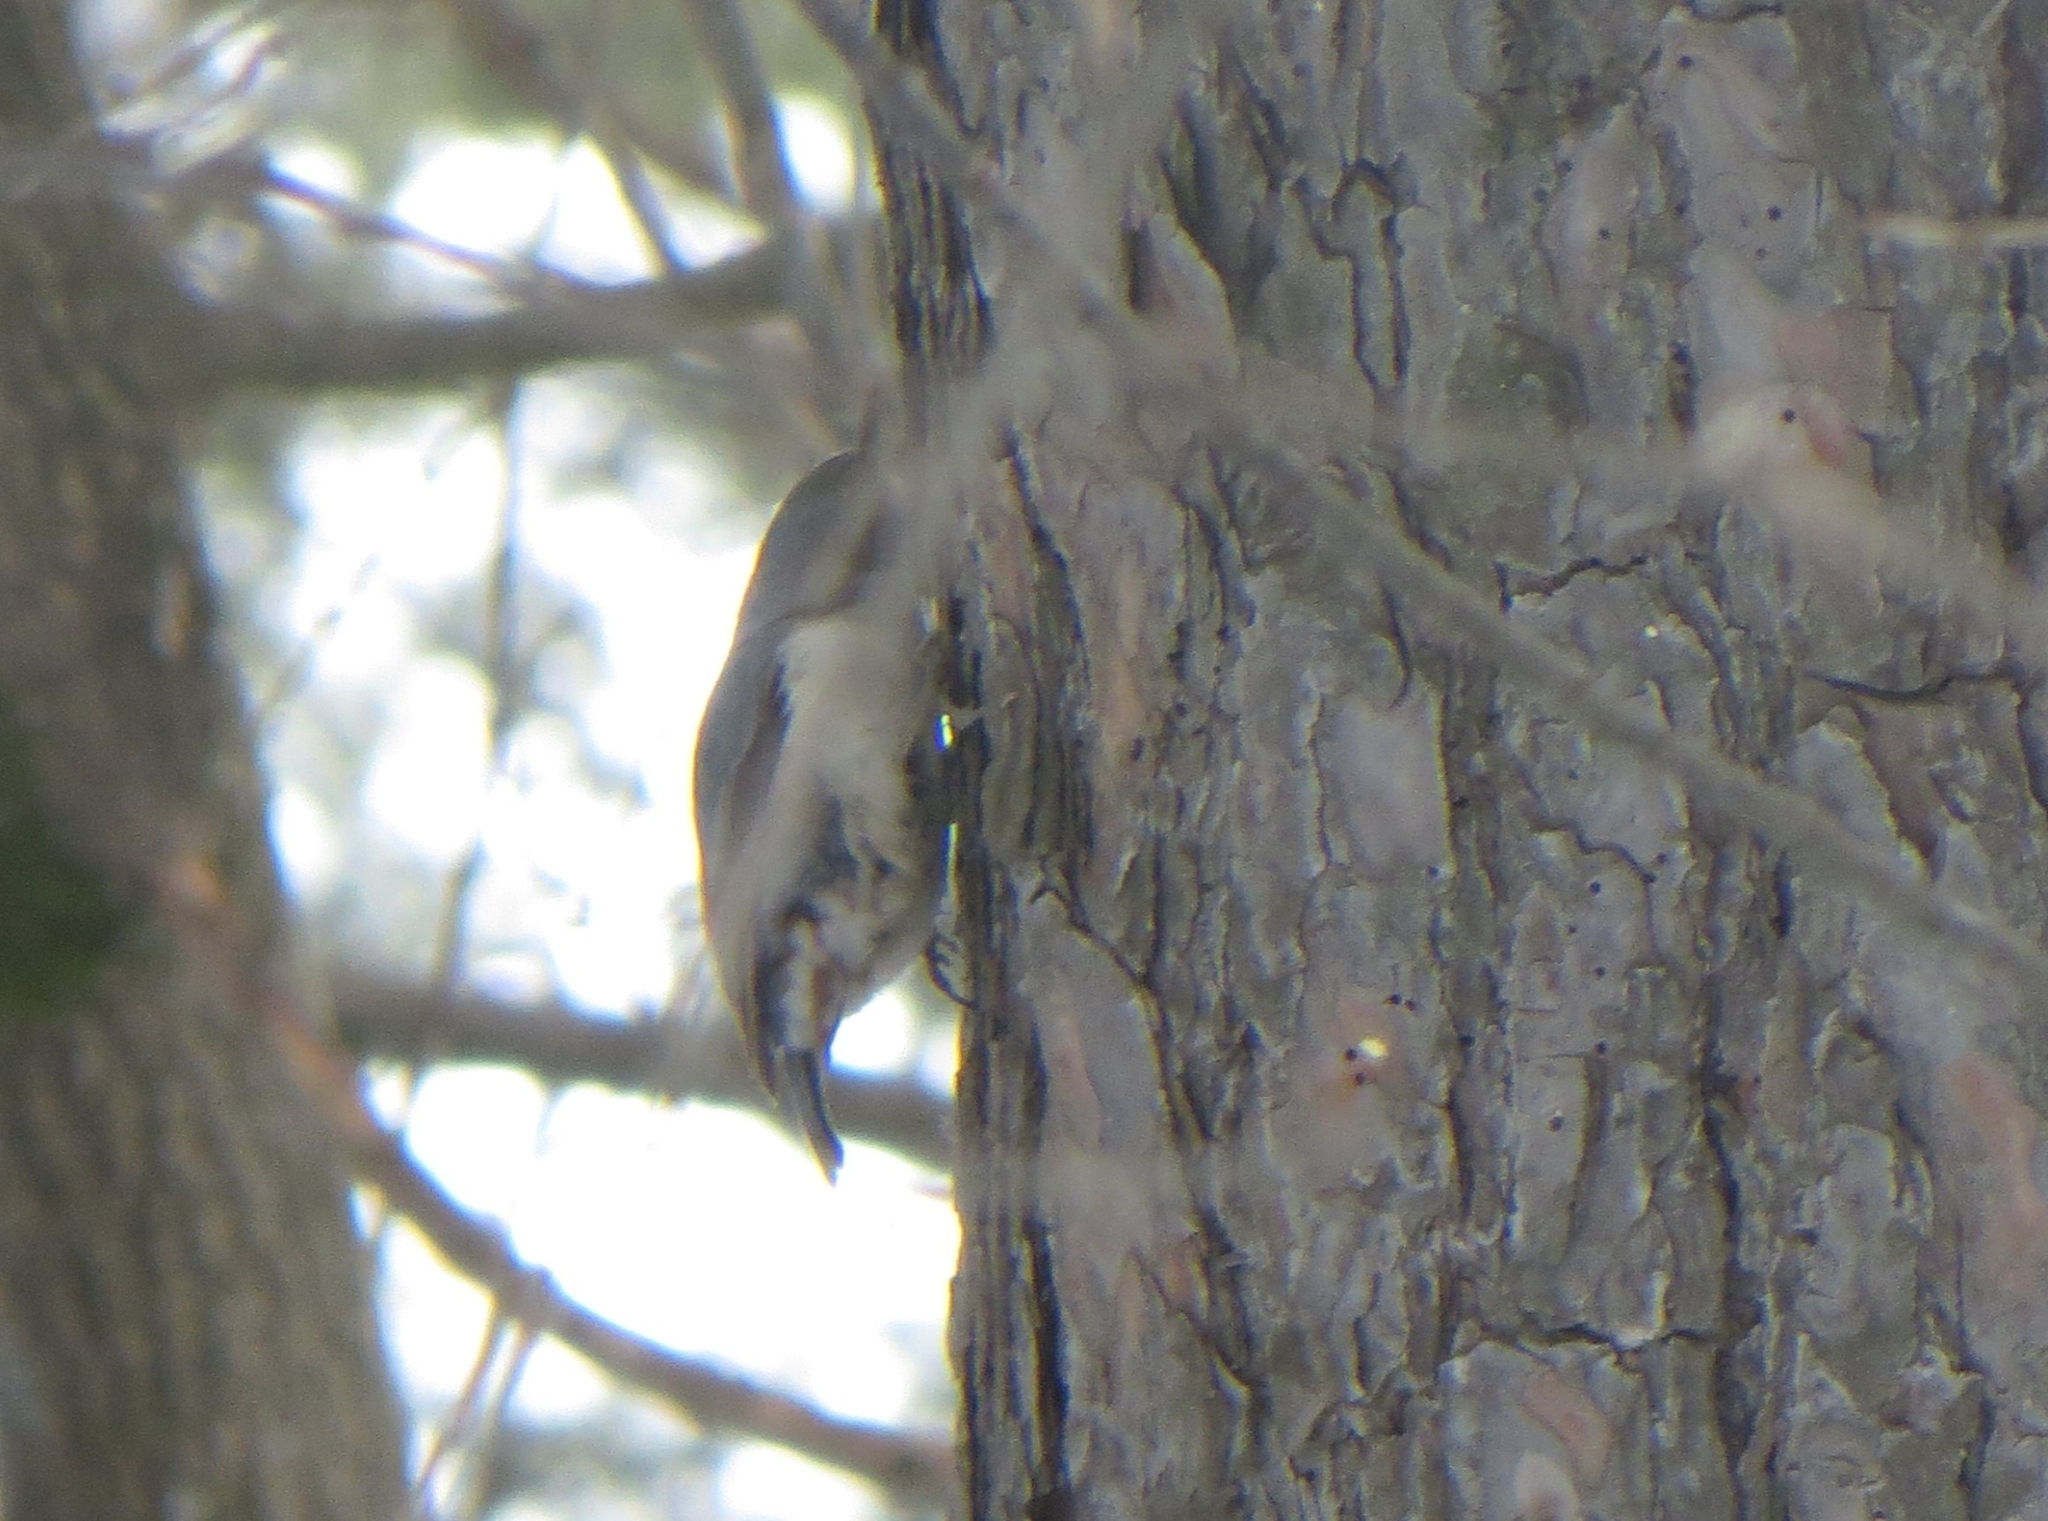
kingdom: Animalia
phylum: Chordata
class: Aves
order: Passeriformes
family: Sittidae
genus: Sitta
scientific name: Sitta europaea
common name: Eurasian nuthatch
